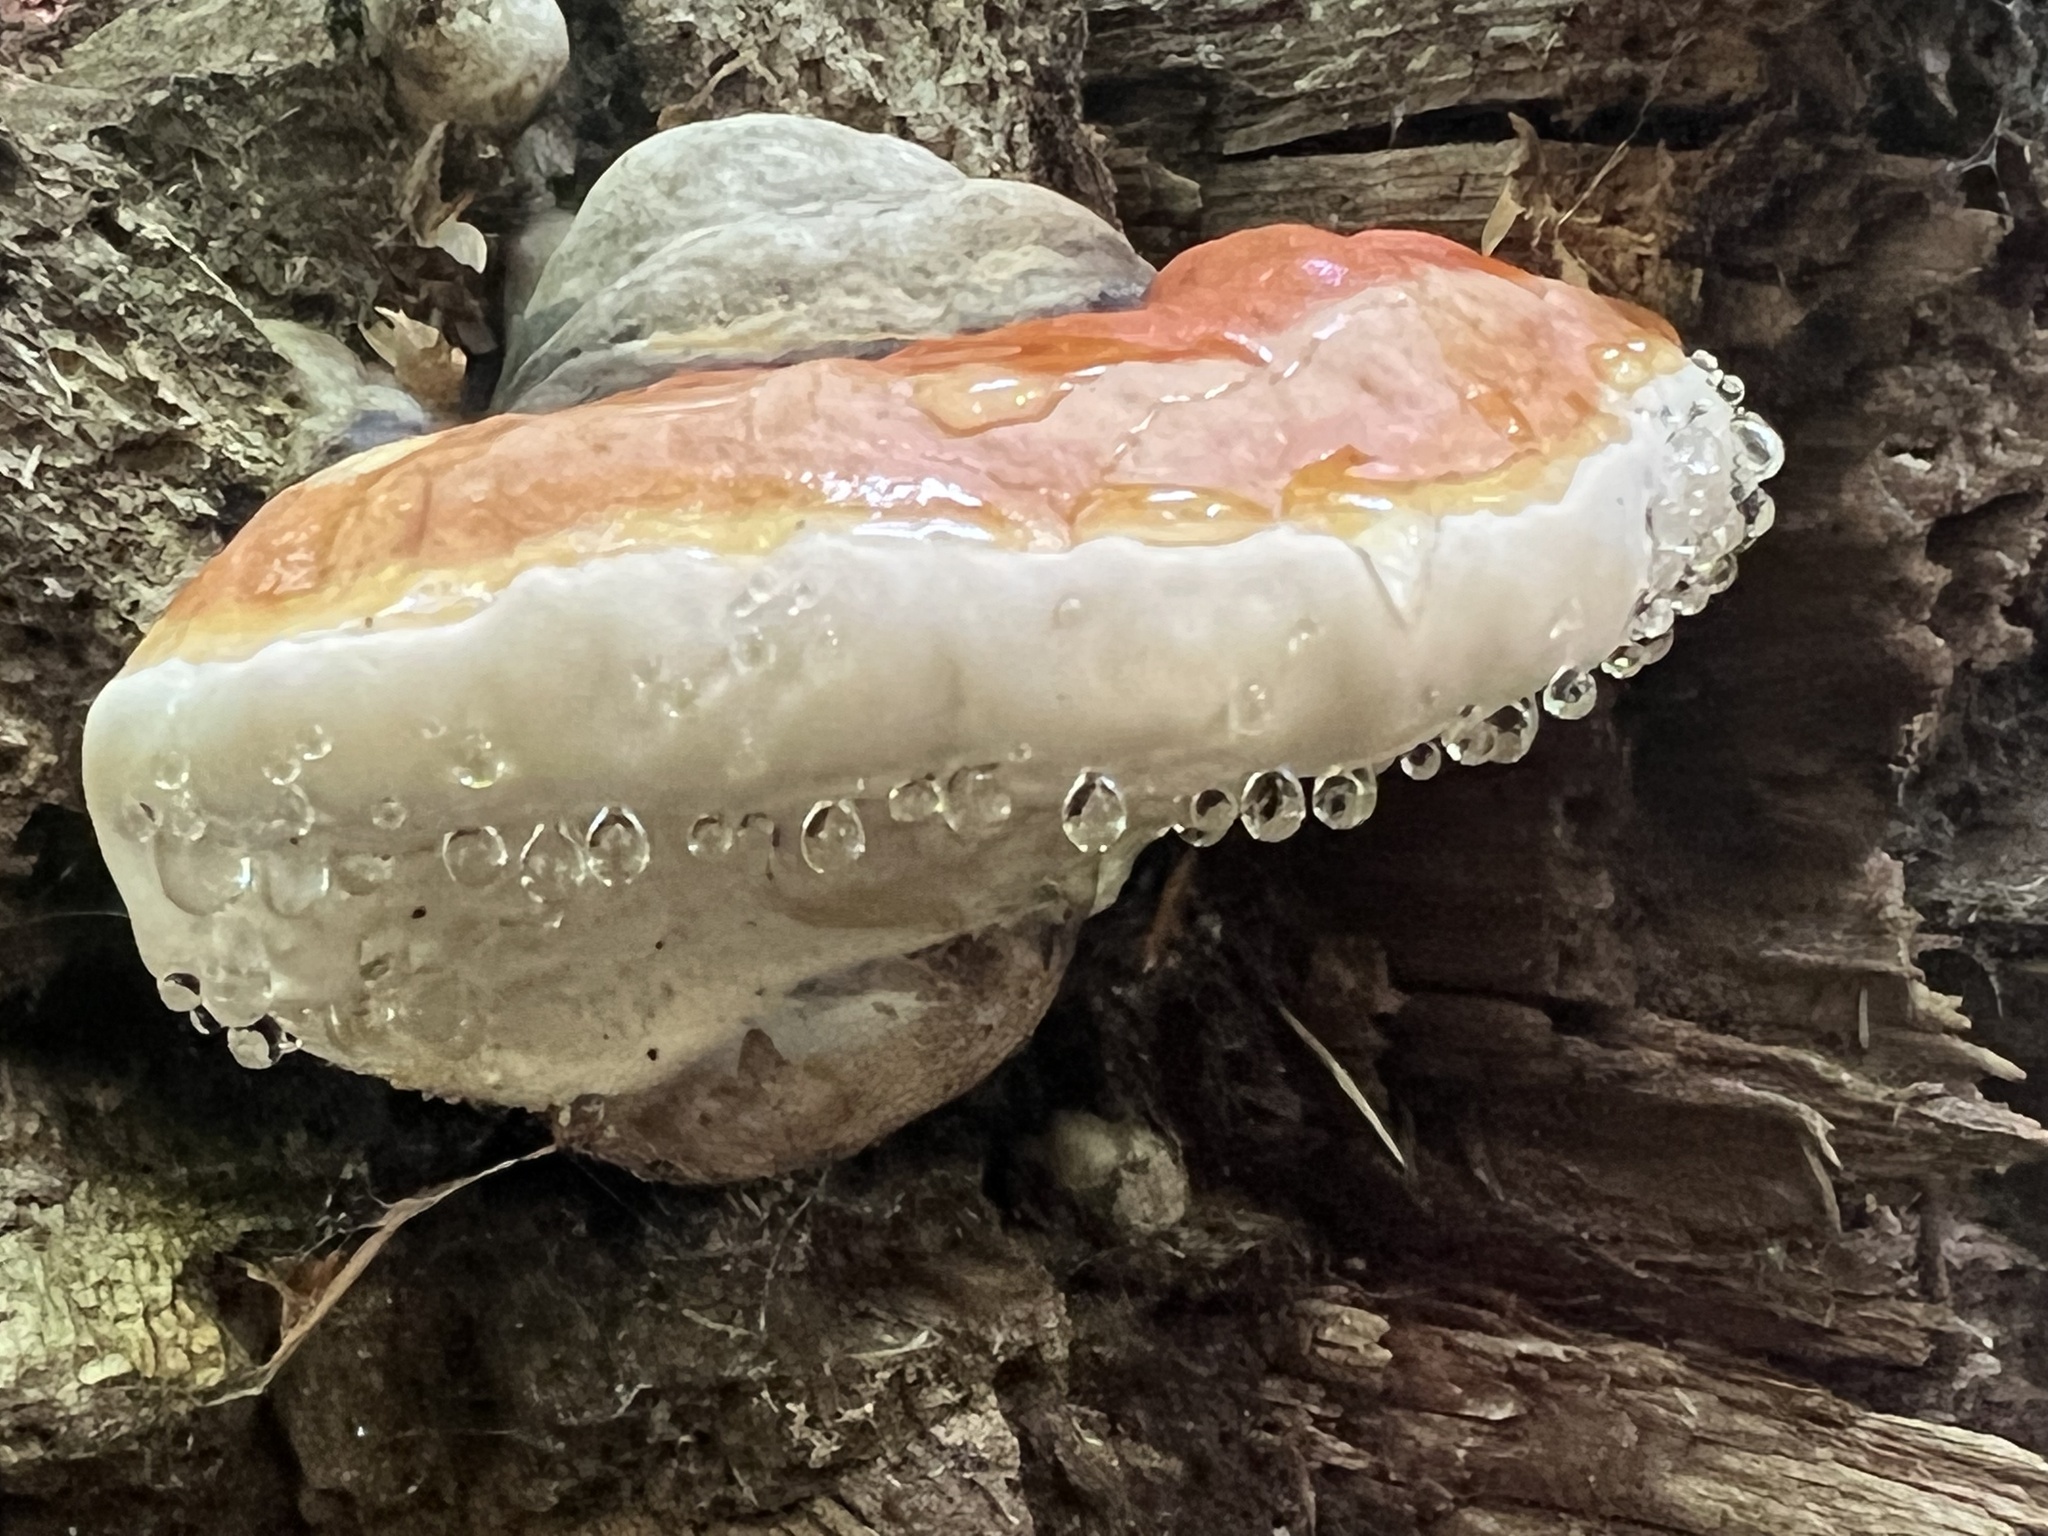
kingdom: Fungi
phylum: Basidiomycota
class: Agaricomycetes
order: Polyporales
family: Fomitopsidaceae
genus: Fomitopsis
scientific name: Fomitopsis mounceae
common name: Northern red belt
